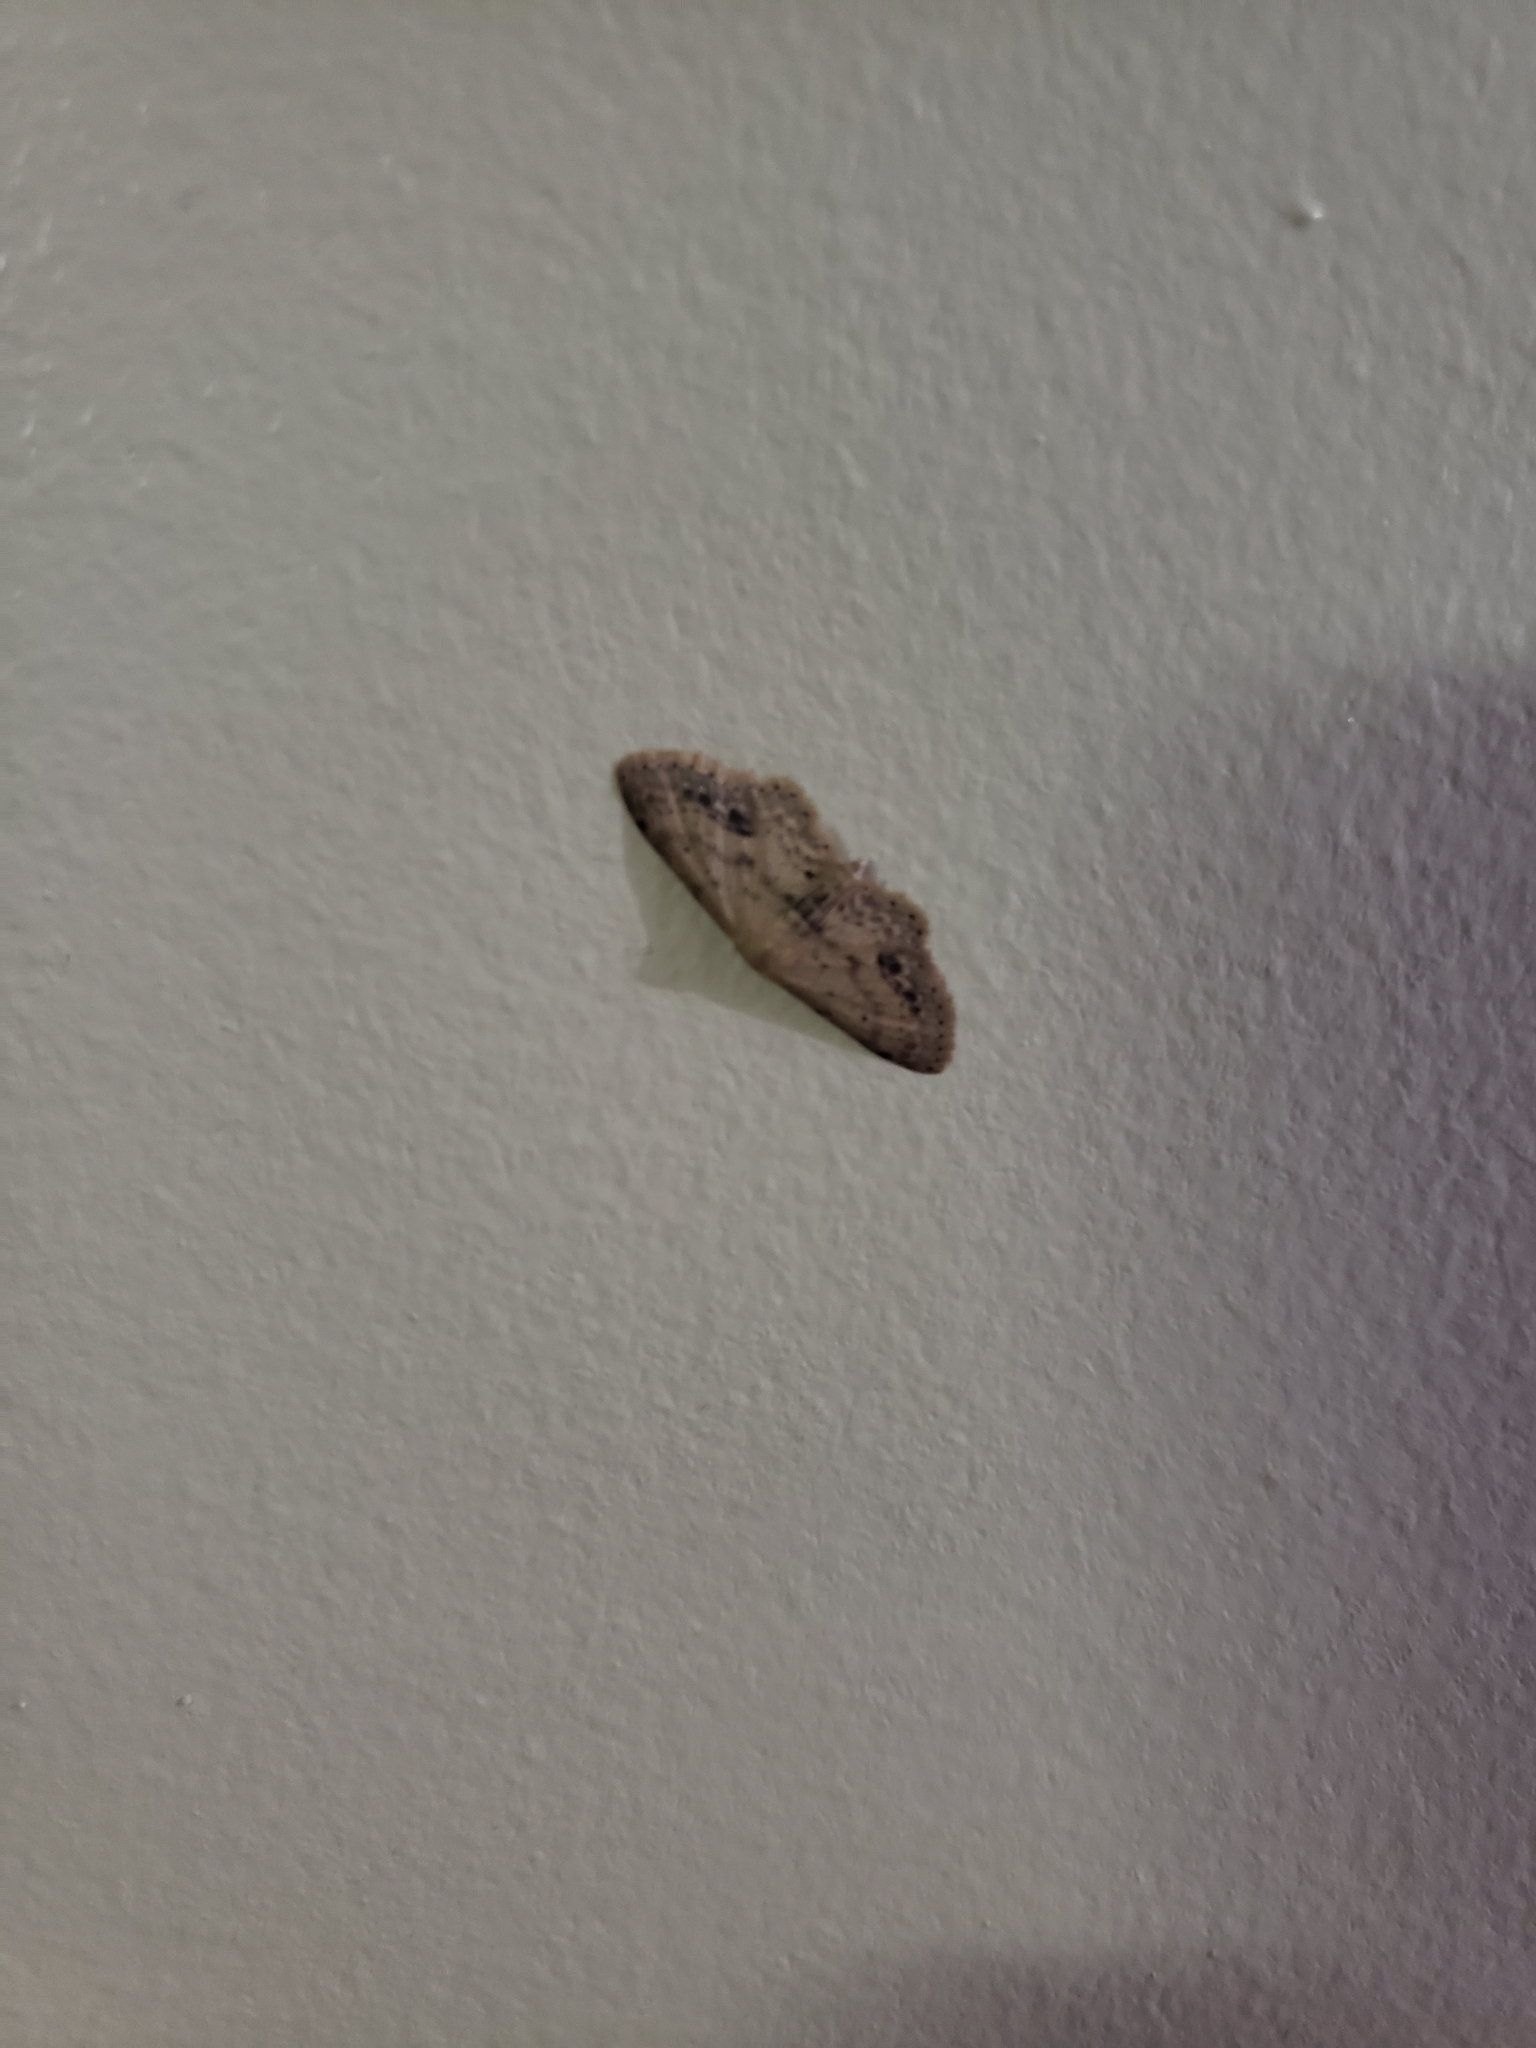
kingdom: Animalia
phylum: Arthropoda
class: Insecta
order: Lepidoptera
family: Geometridae
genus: Idaea
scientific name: Idaea dimidiata
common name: Single-dotted wave
